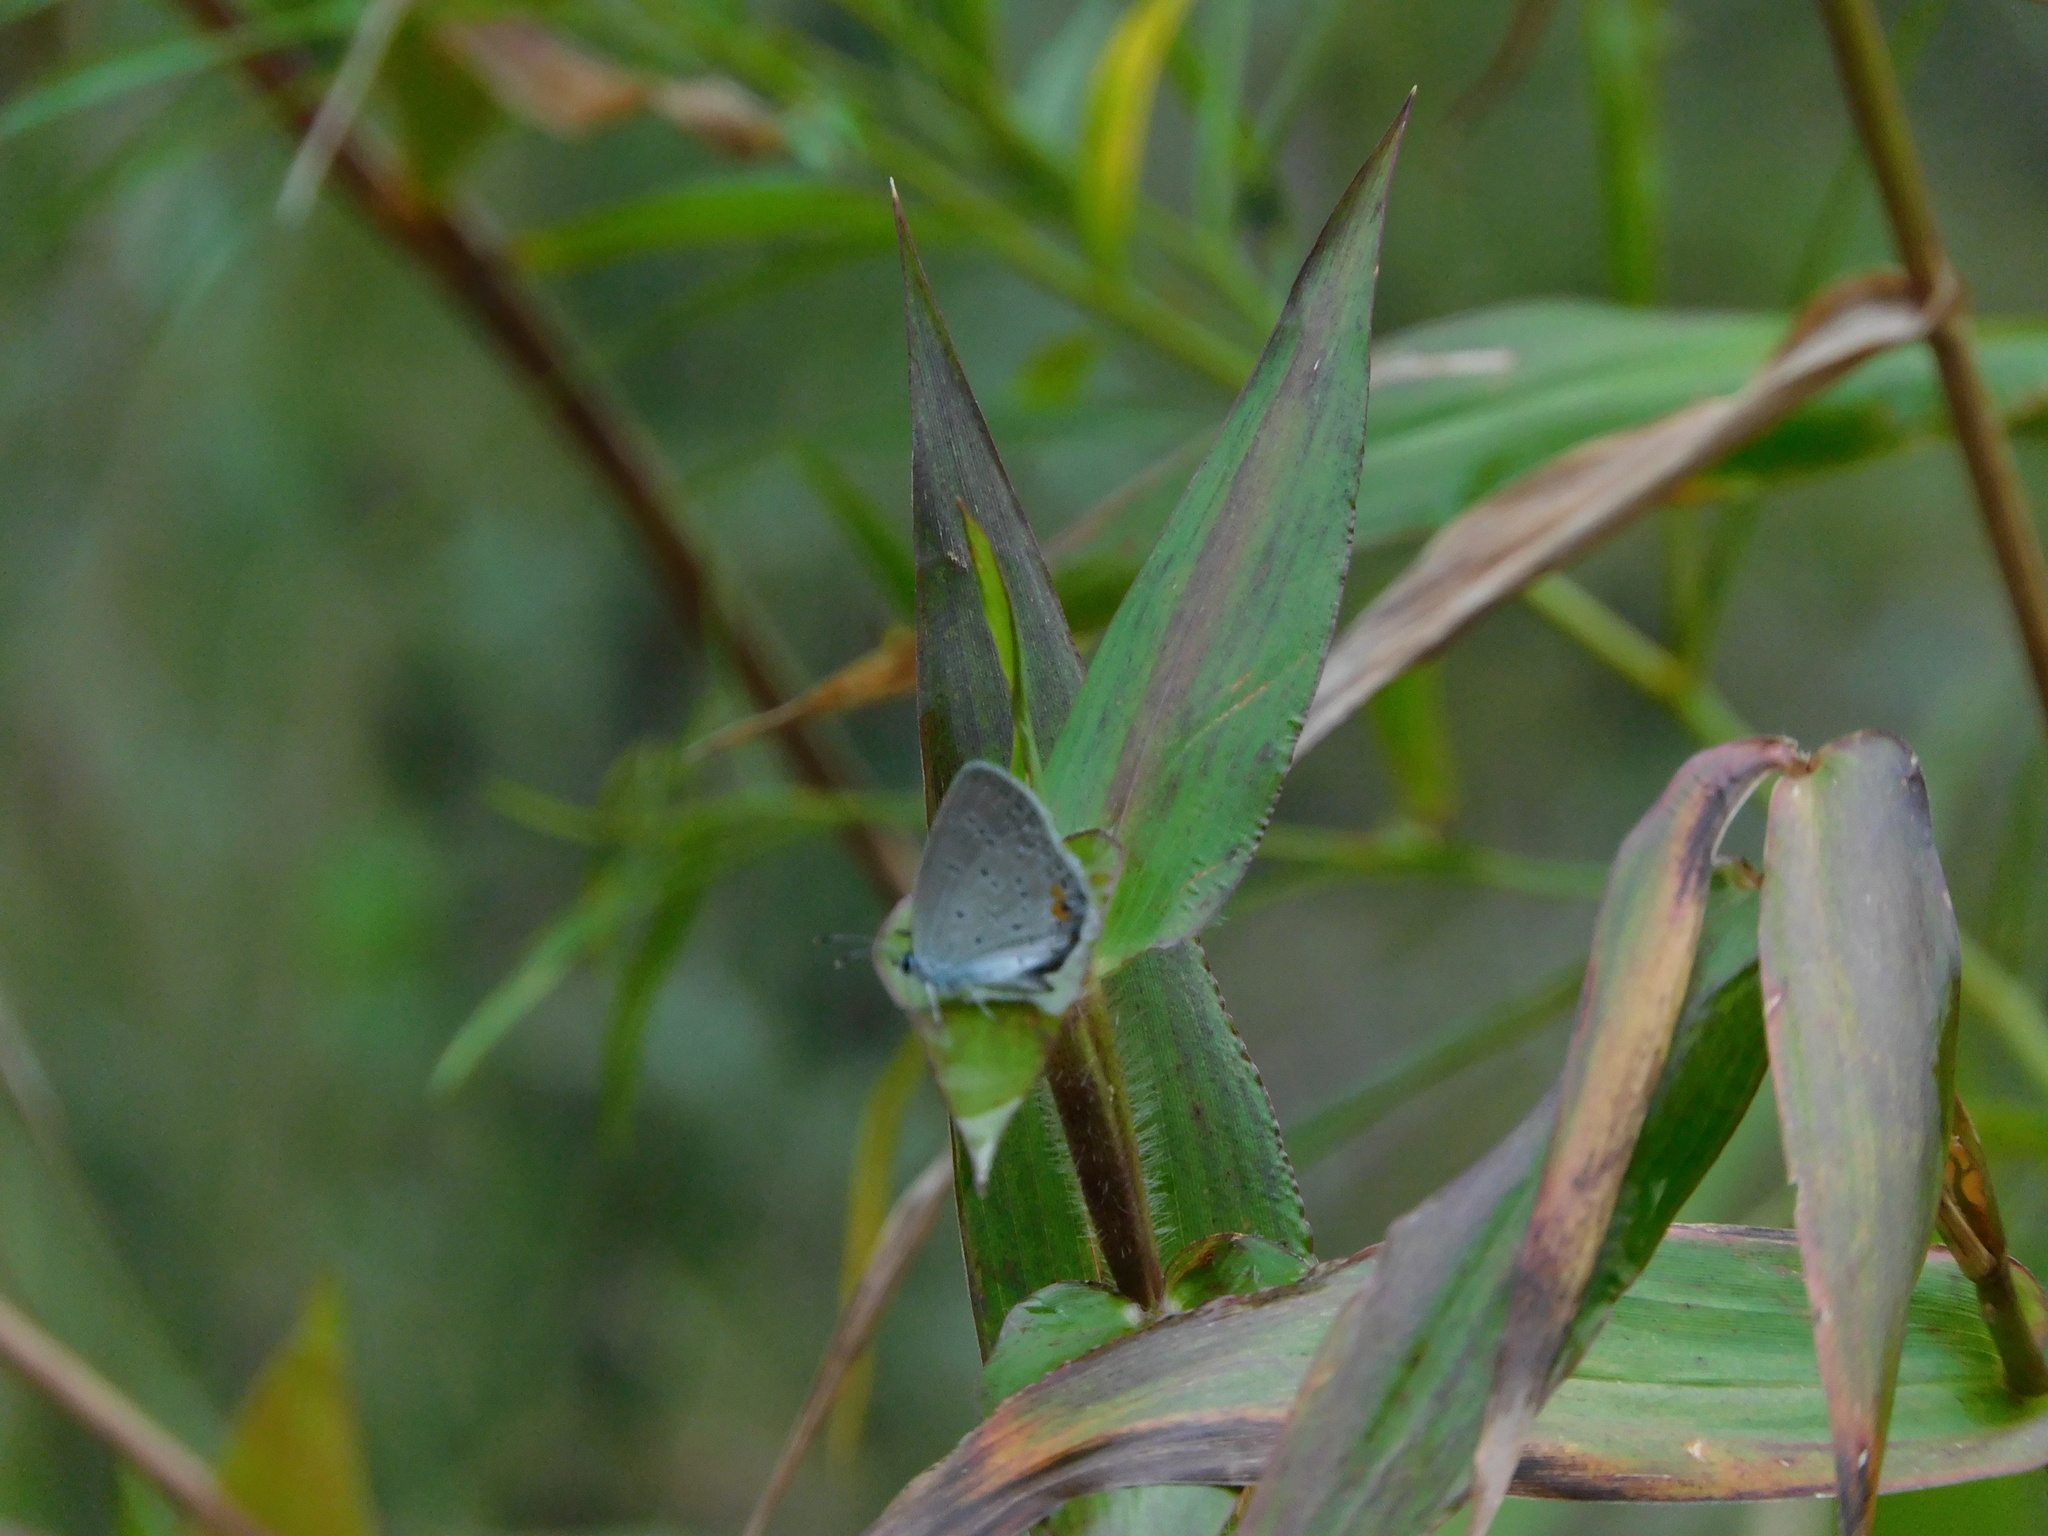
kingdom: Animalia
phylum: Arthropoda
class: Insecta
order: Lepidoptera
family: Lycaenidae
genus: Elkalyce
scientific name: Elkalyce comyntas
